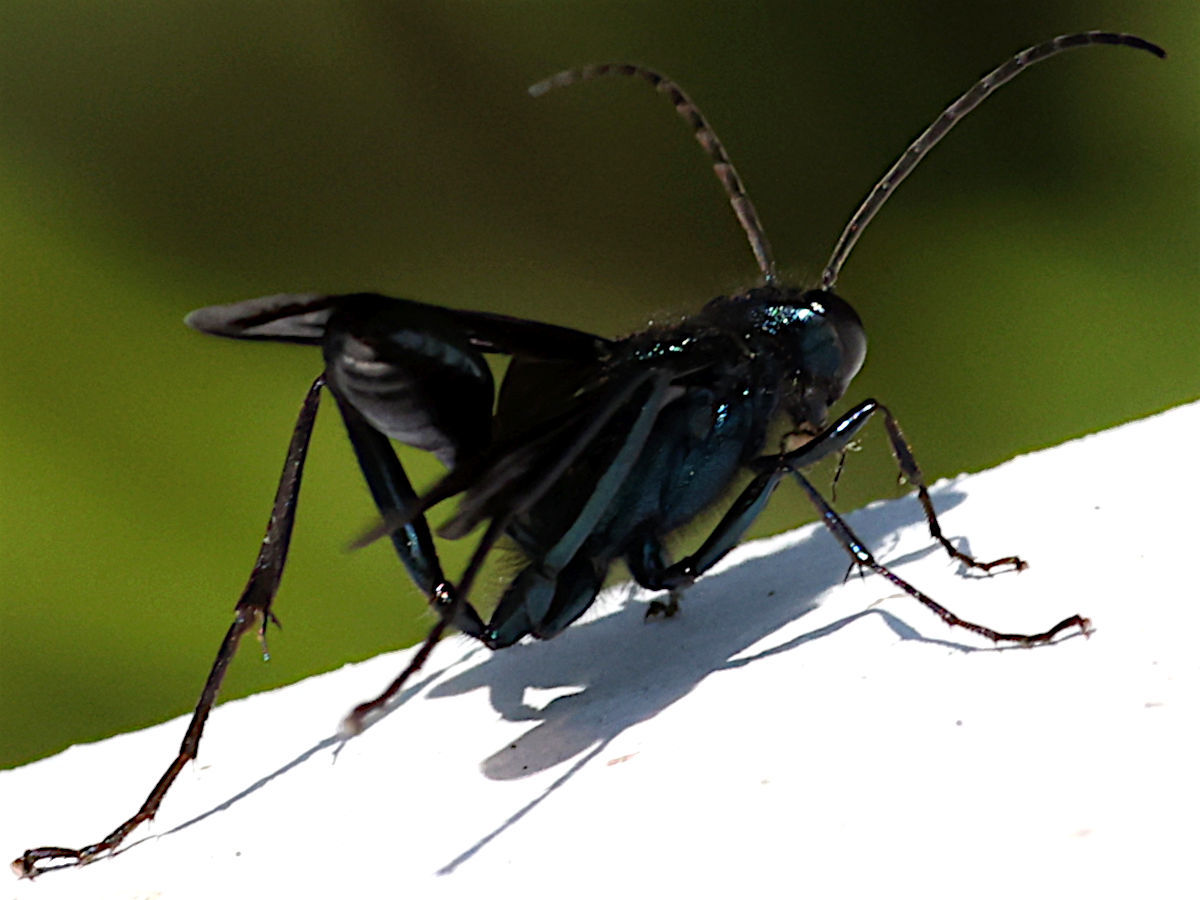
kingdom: Animalia
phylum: Arthropoda
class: Insecta
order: Hymenoptera
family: Sphecidae
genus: Chalybion
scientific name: Chalybion californicum
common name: Mud dauber
